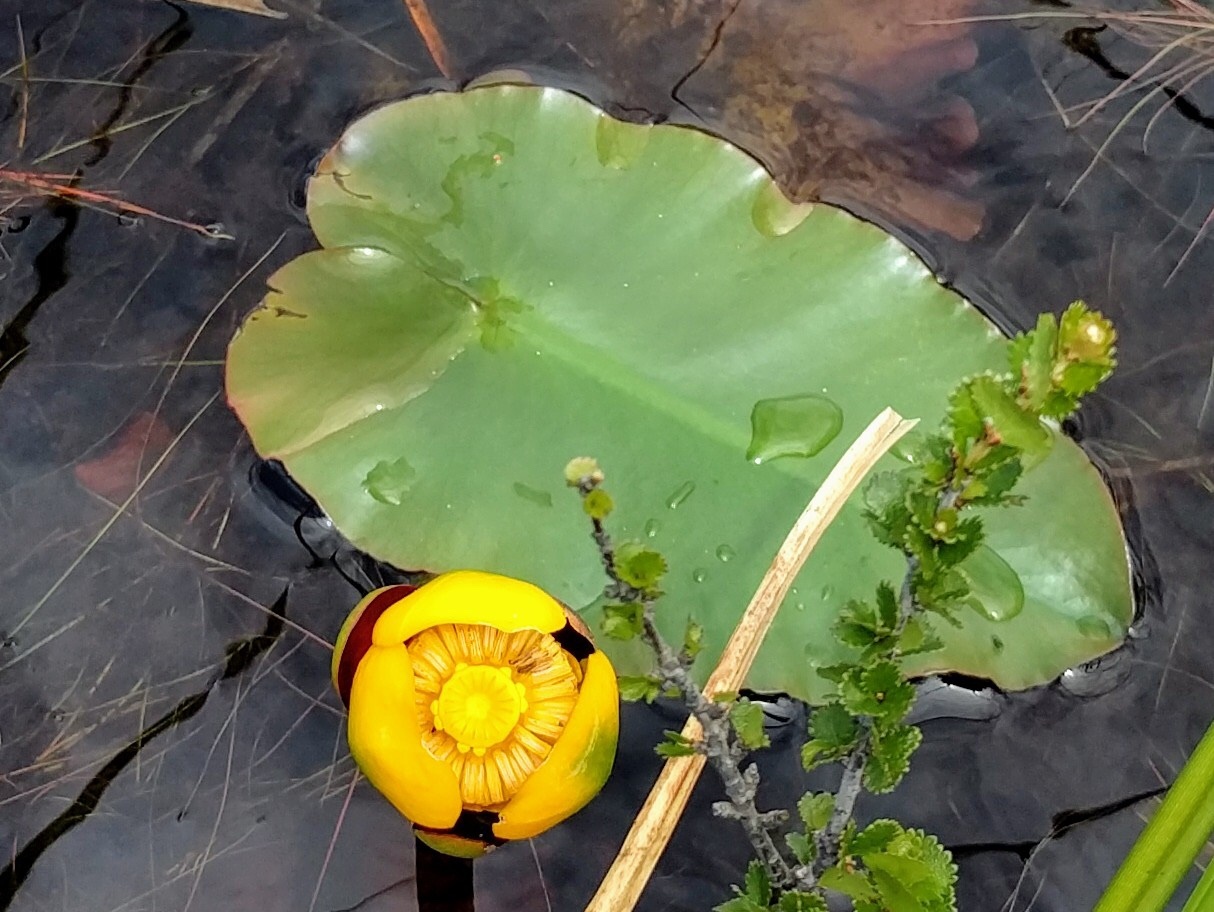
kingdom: Plantae
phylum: Tracheophyta
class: Magnoliopsida
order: Nymphaeales
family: Nymphaeaceae
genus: Nuphar
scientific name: Nuphar variegata
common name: Beaver-root
